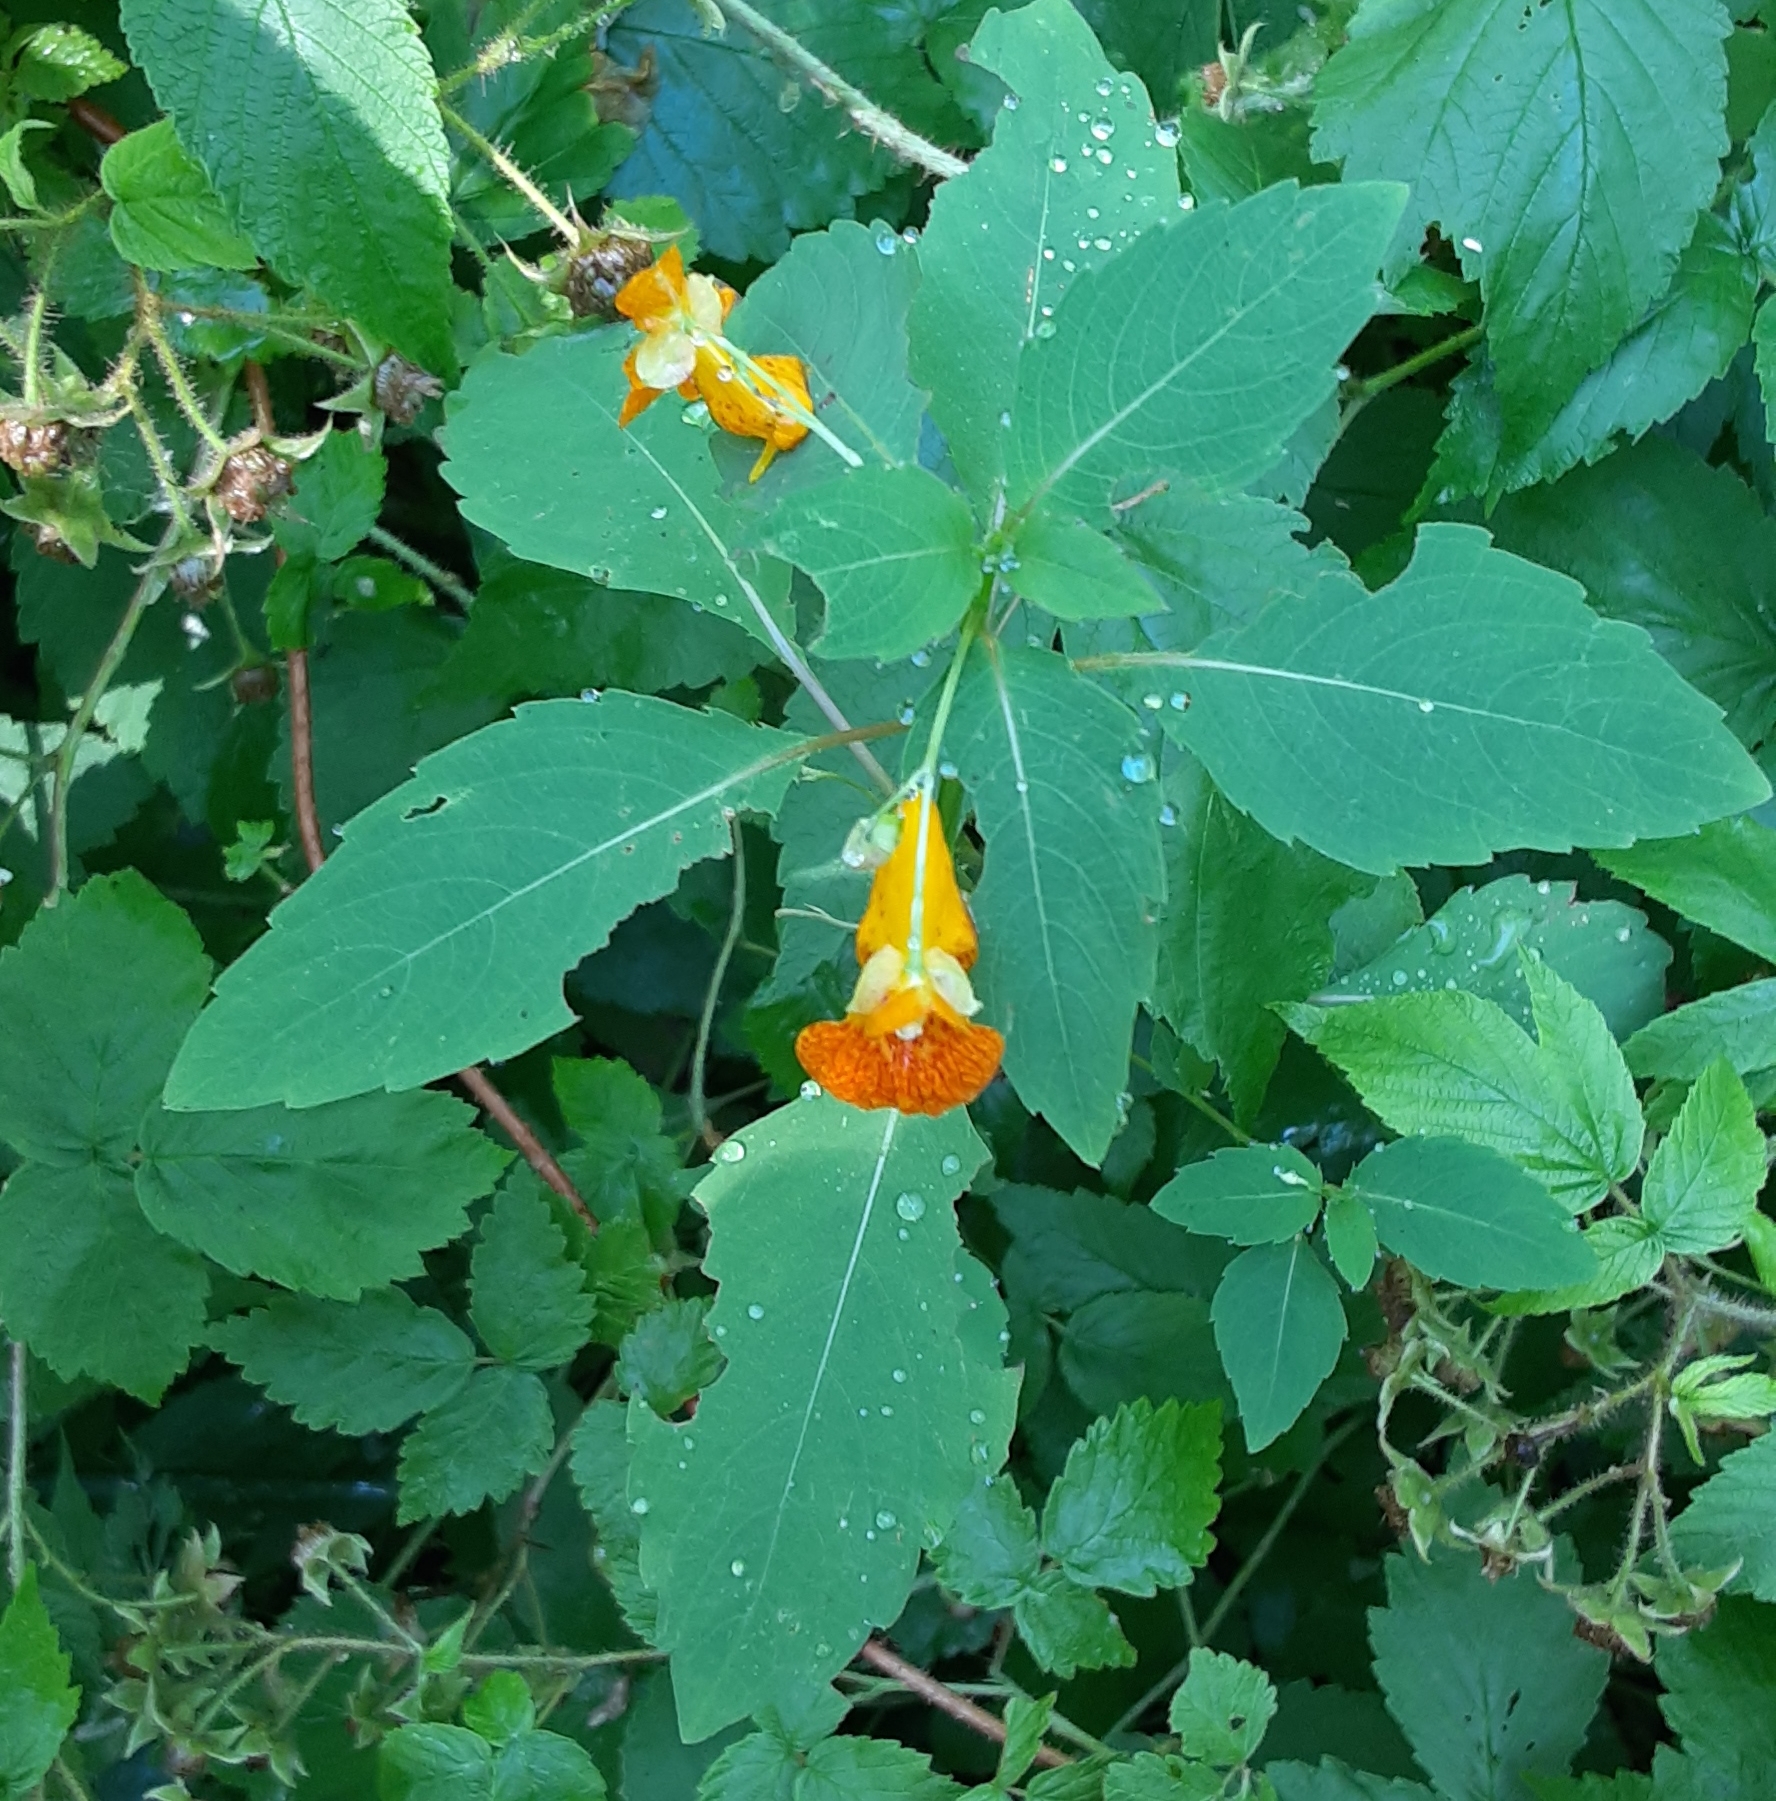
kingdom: Plantae
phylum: Tracheophyta
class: Magnoliopsida
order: Ericales
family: Balsaminaceae
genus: Impatiens
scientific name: Impatiens capensis
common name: Orange balsam
